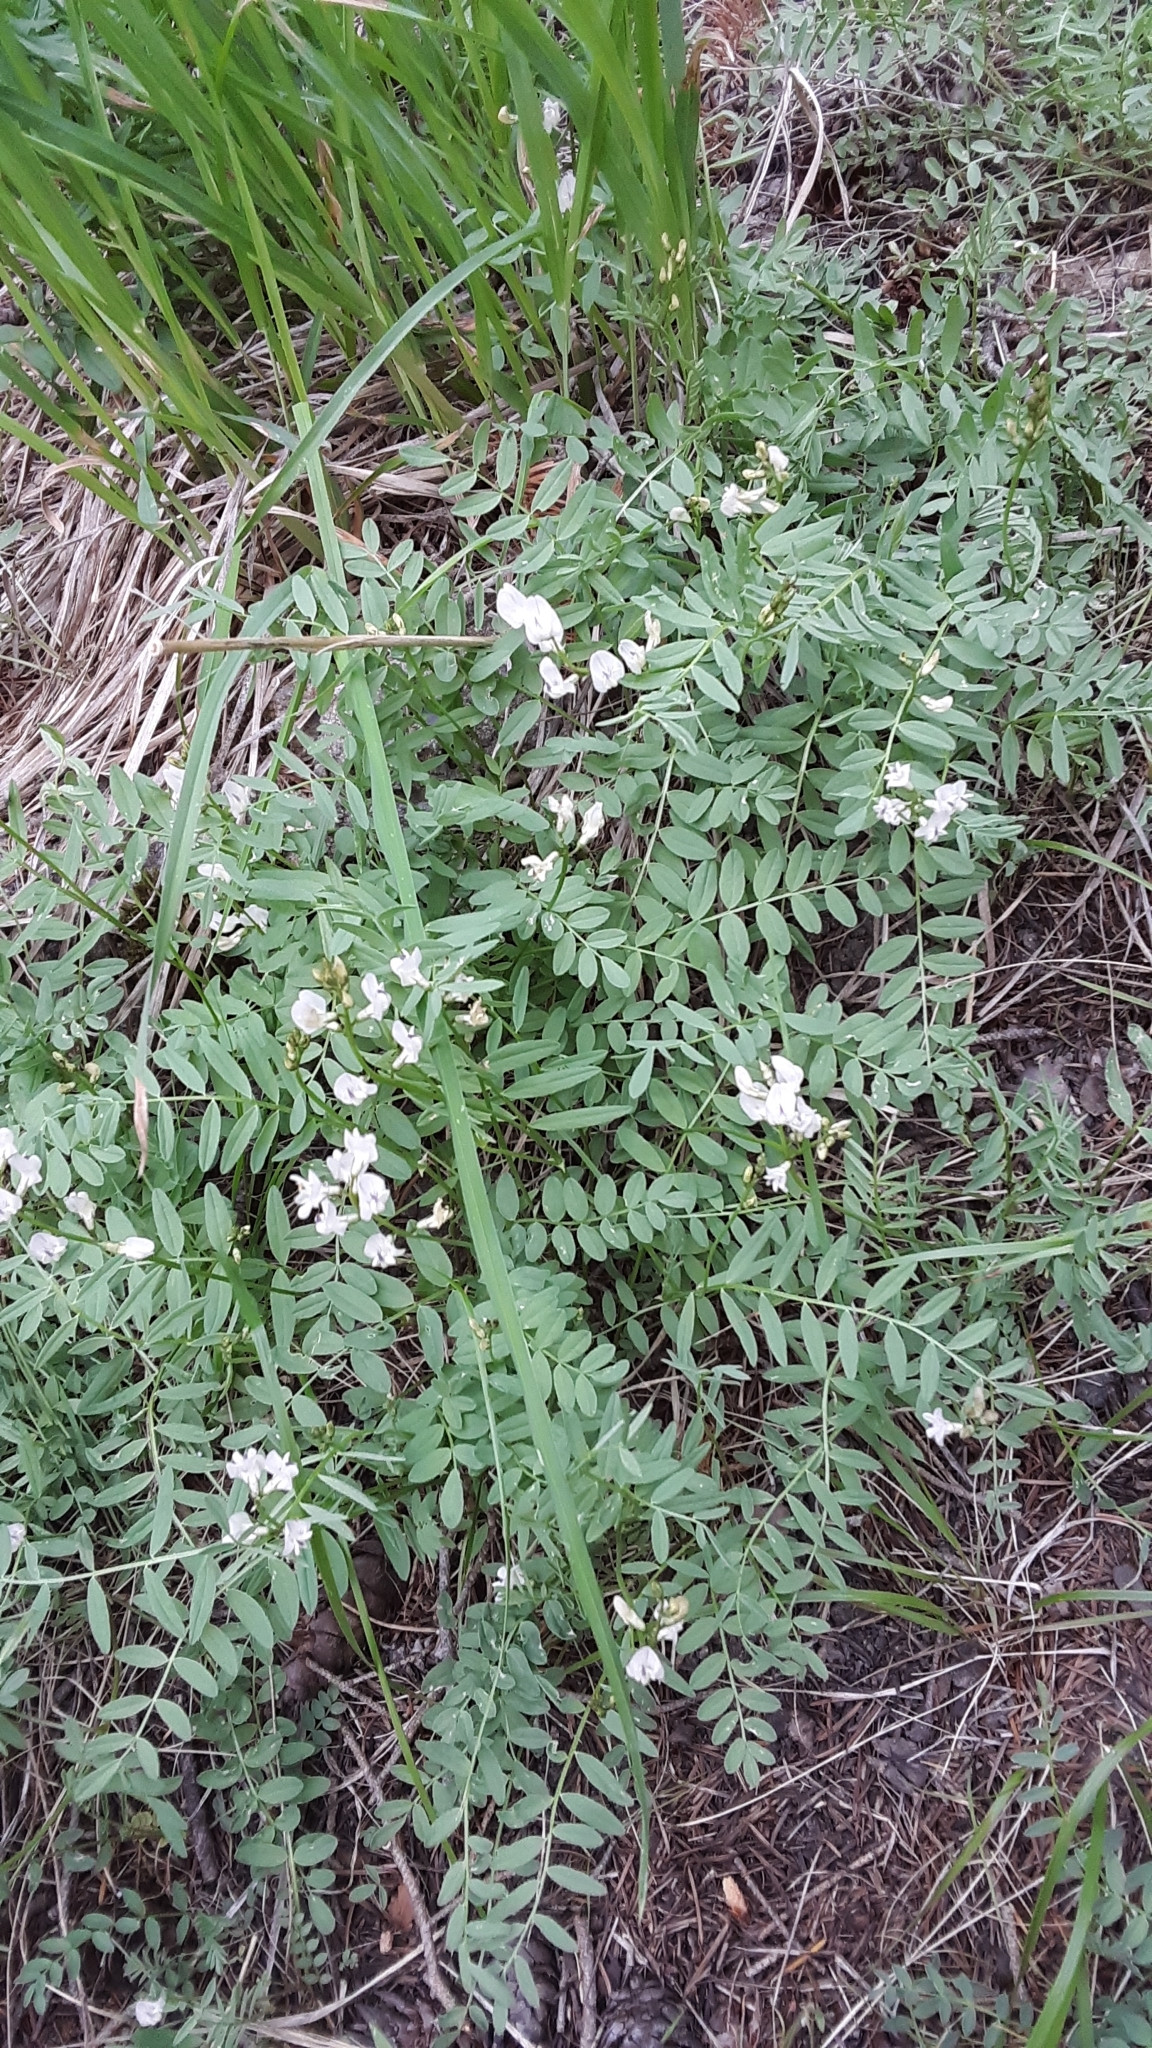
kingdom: Plantae
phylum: Tracheophyta
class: Magnoliopsida
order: Fabales
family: Fabaceae
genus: Astragalus
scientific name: Astragalus miser
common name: Timber milkvetch
